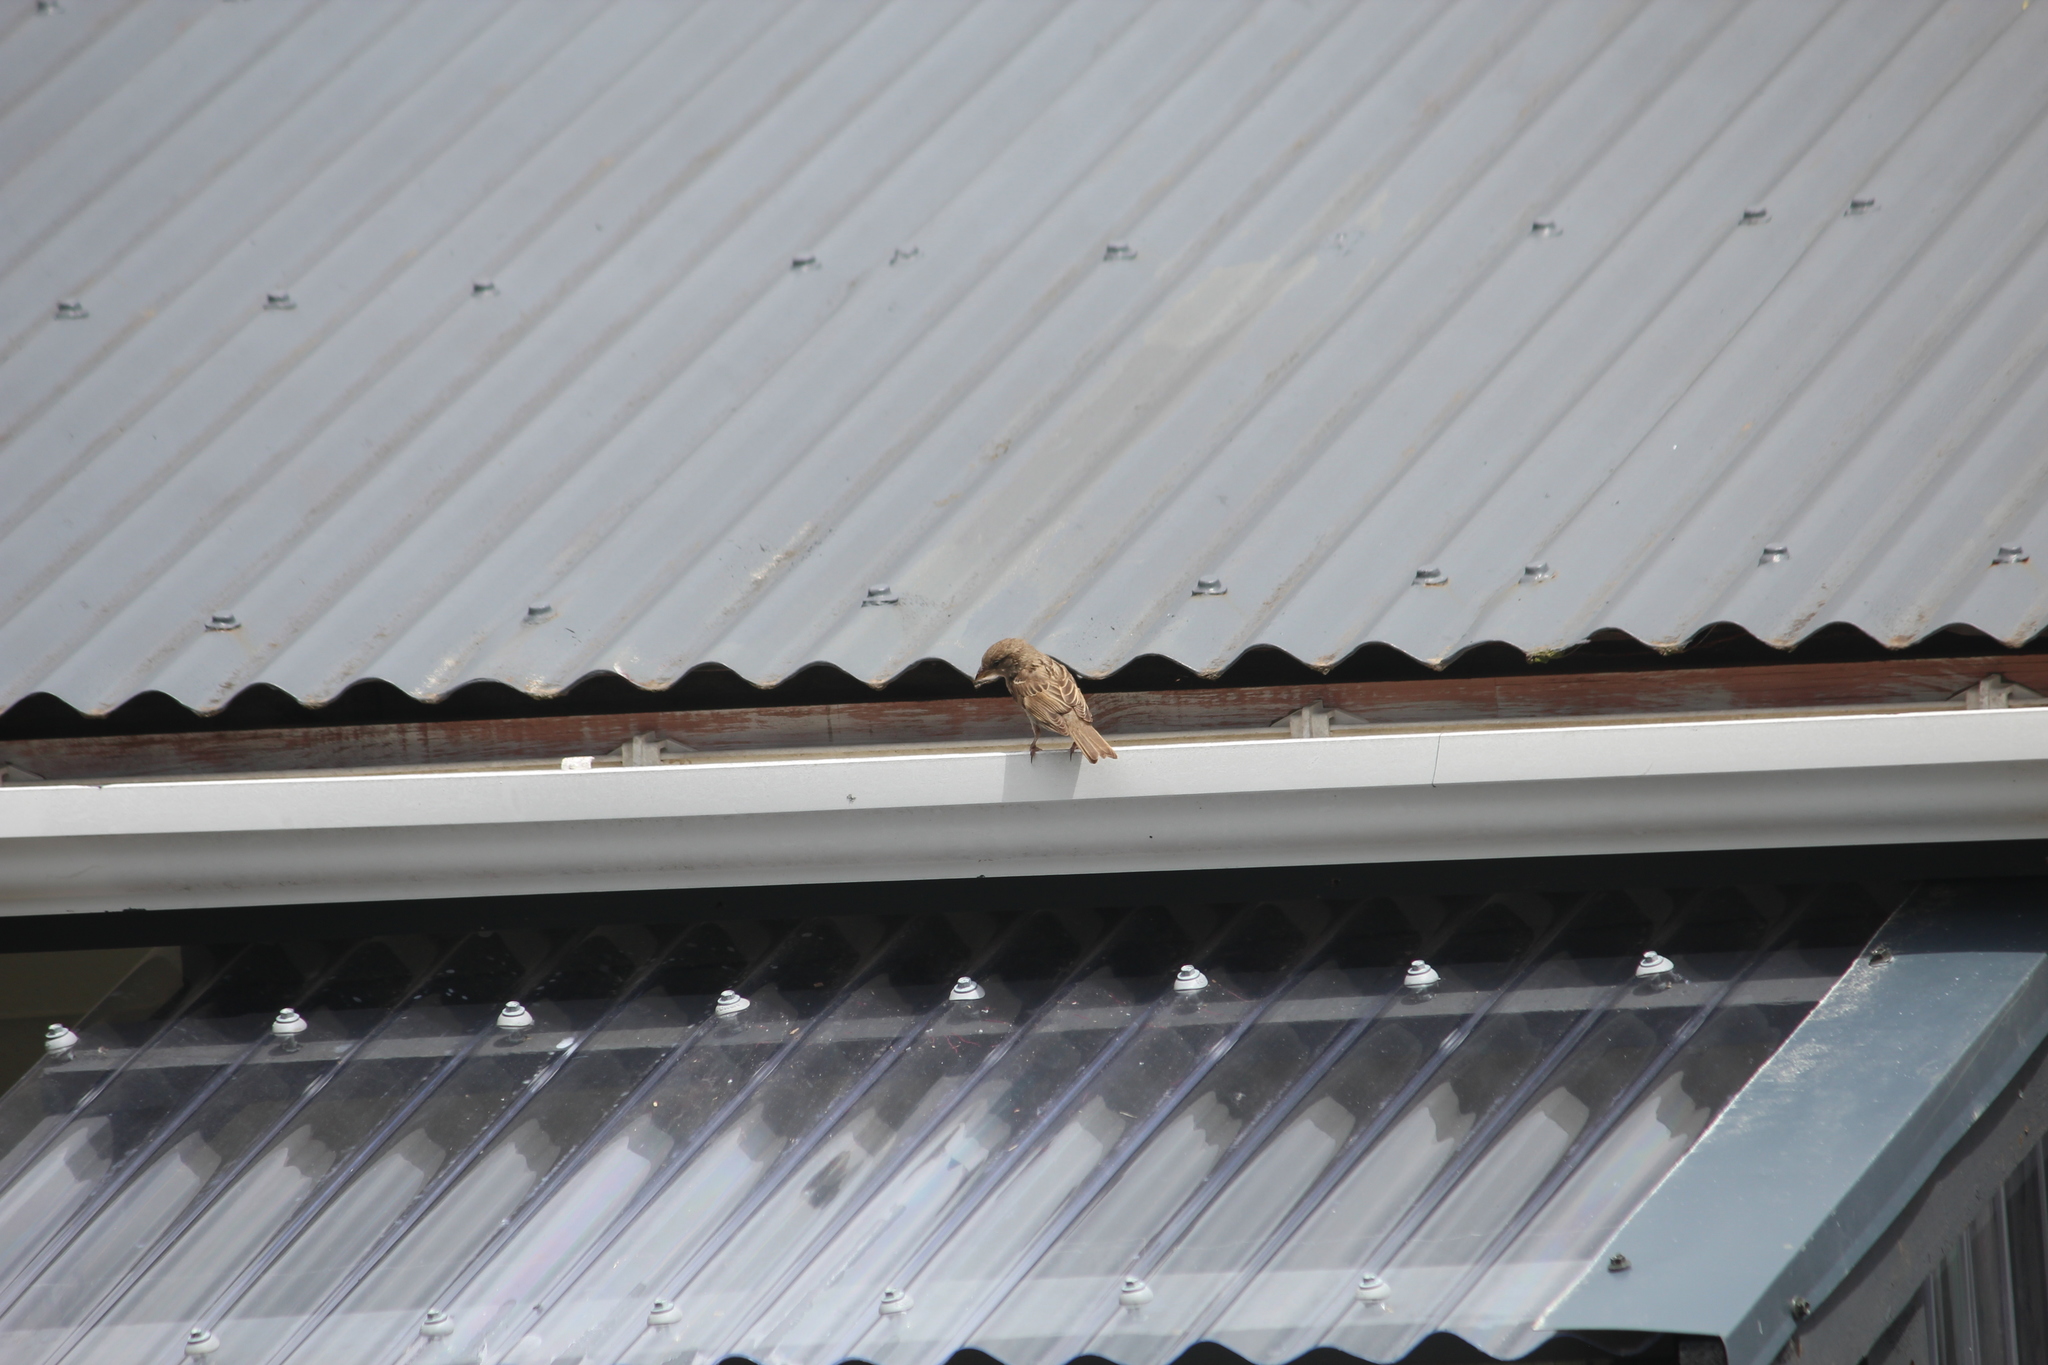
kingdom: Animalia
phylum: Chordata
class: Aves
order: Passeriformes
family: Passeridae
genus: Passer
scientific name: Passer domesticus
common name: House sparrow
